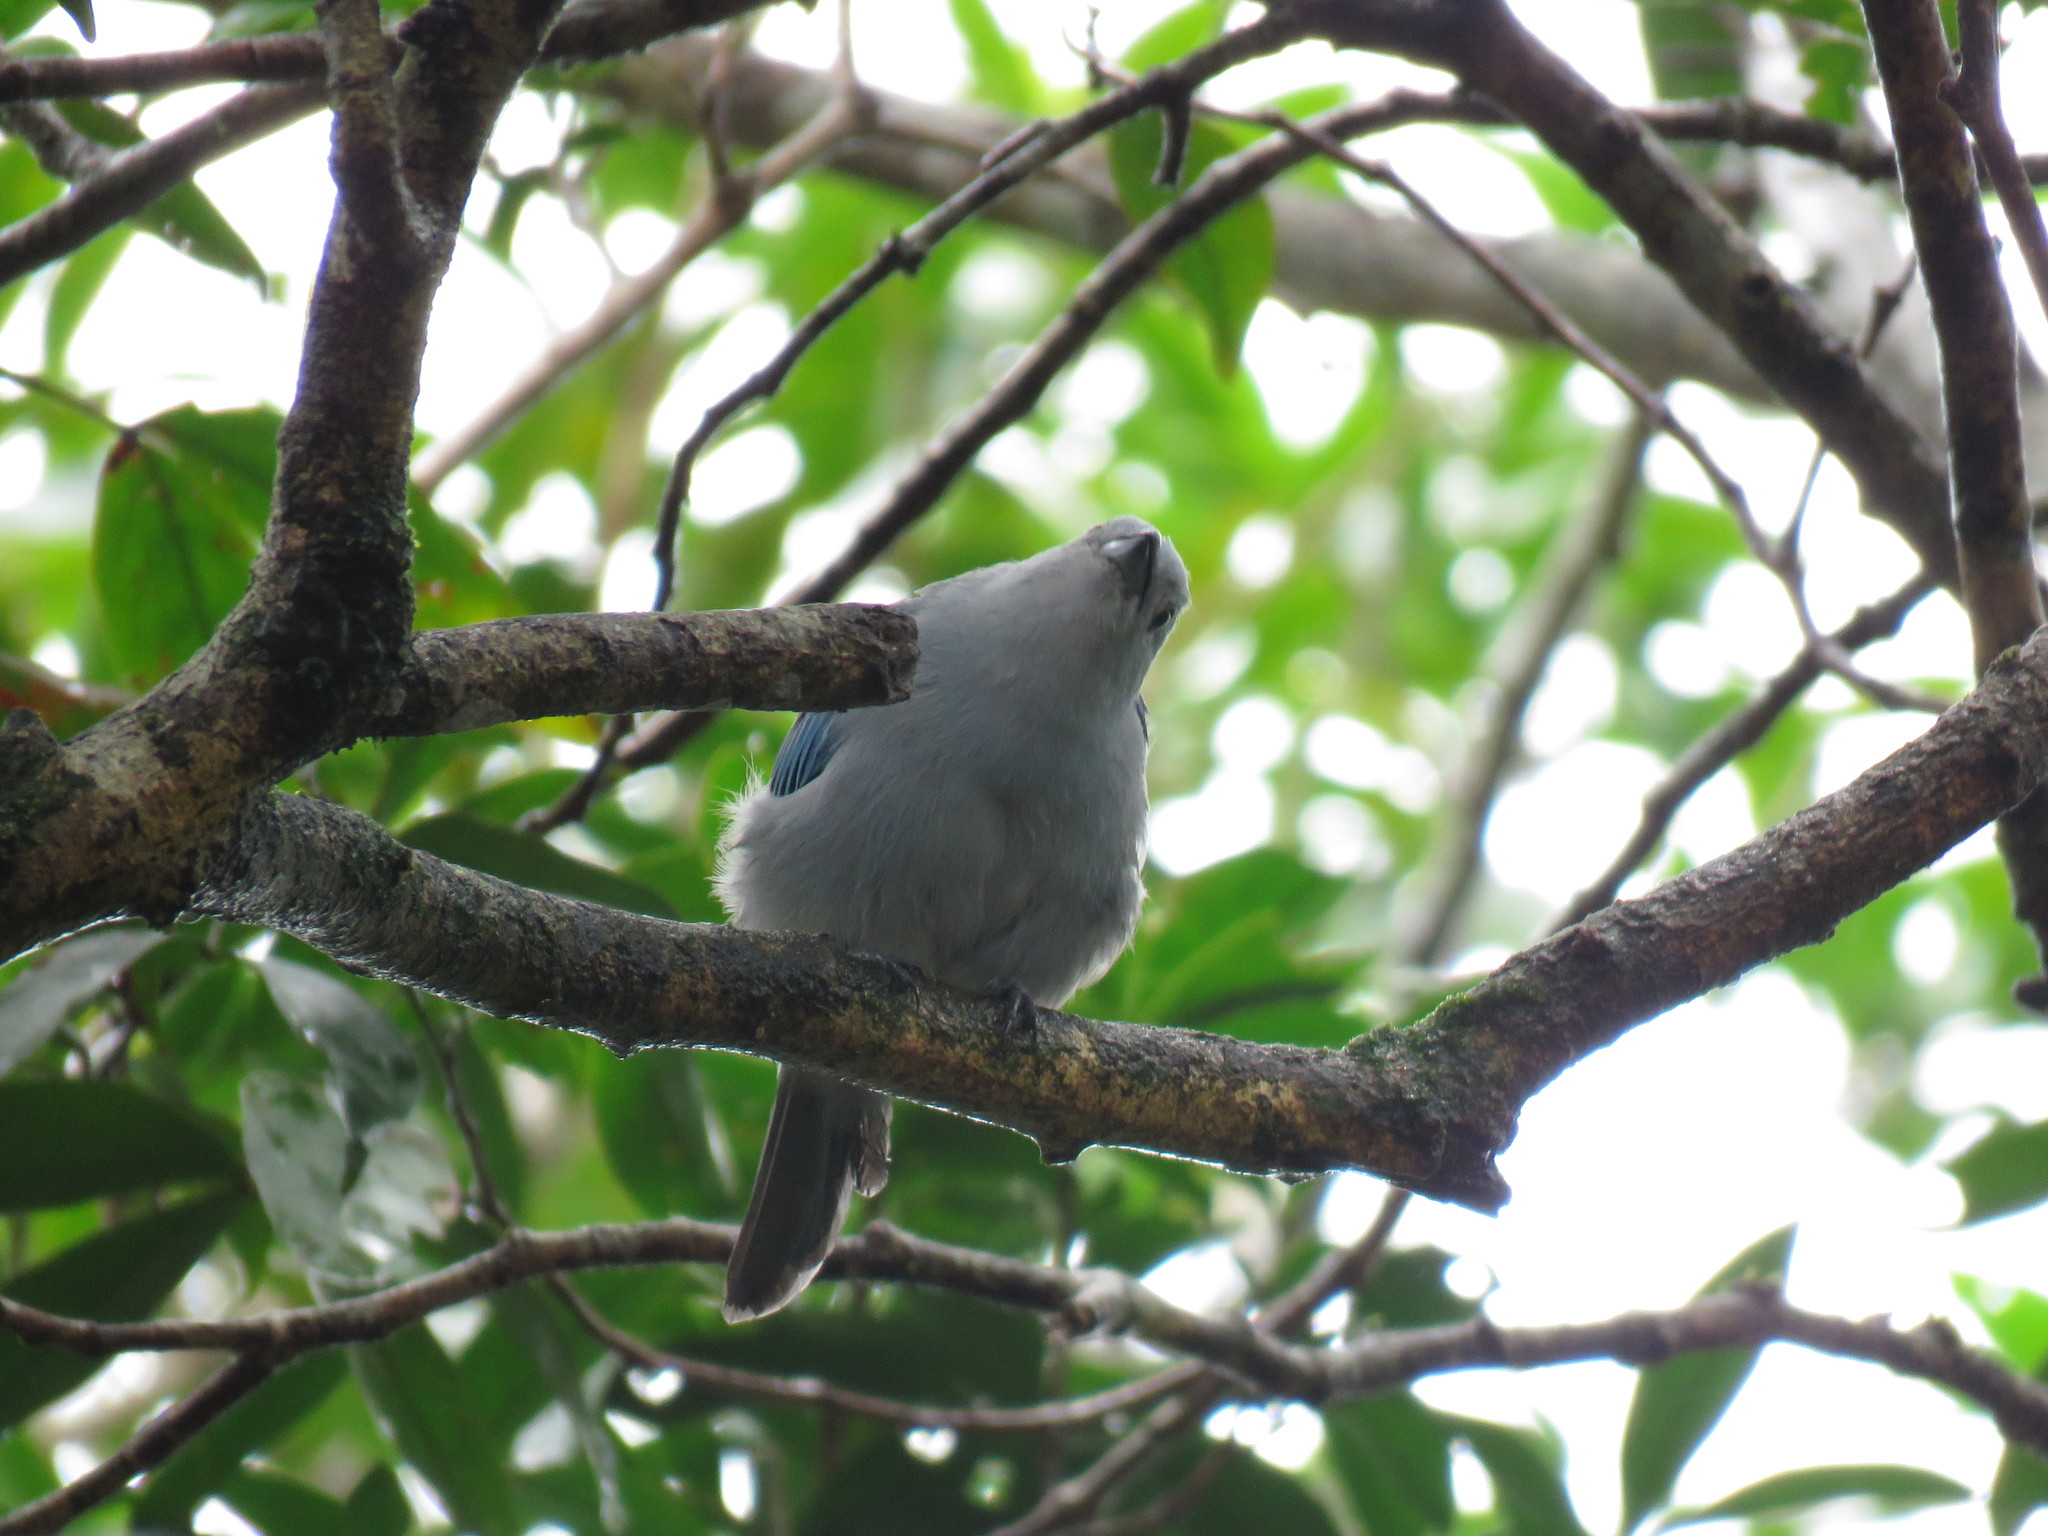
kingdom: Animalia
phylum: Chordata
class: Aves
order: Passeriformes
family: Thraupidae
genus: Thraupis
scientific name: Thraupis episcopus
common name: Blue-grey tanager
